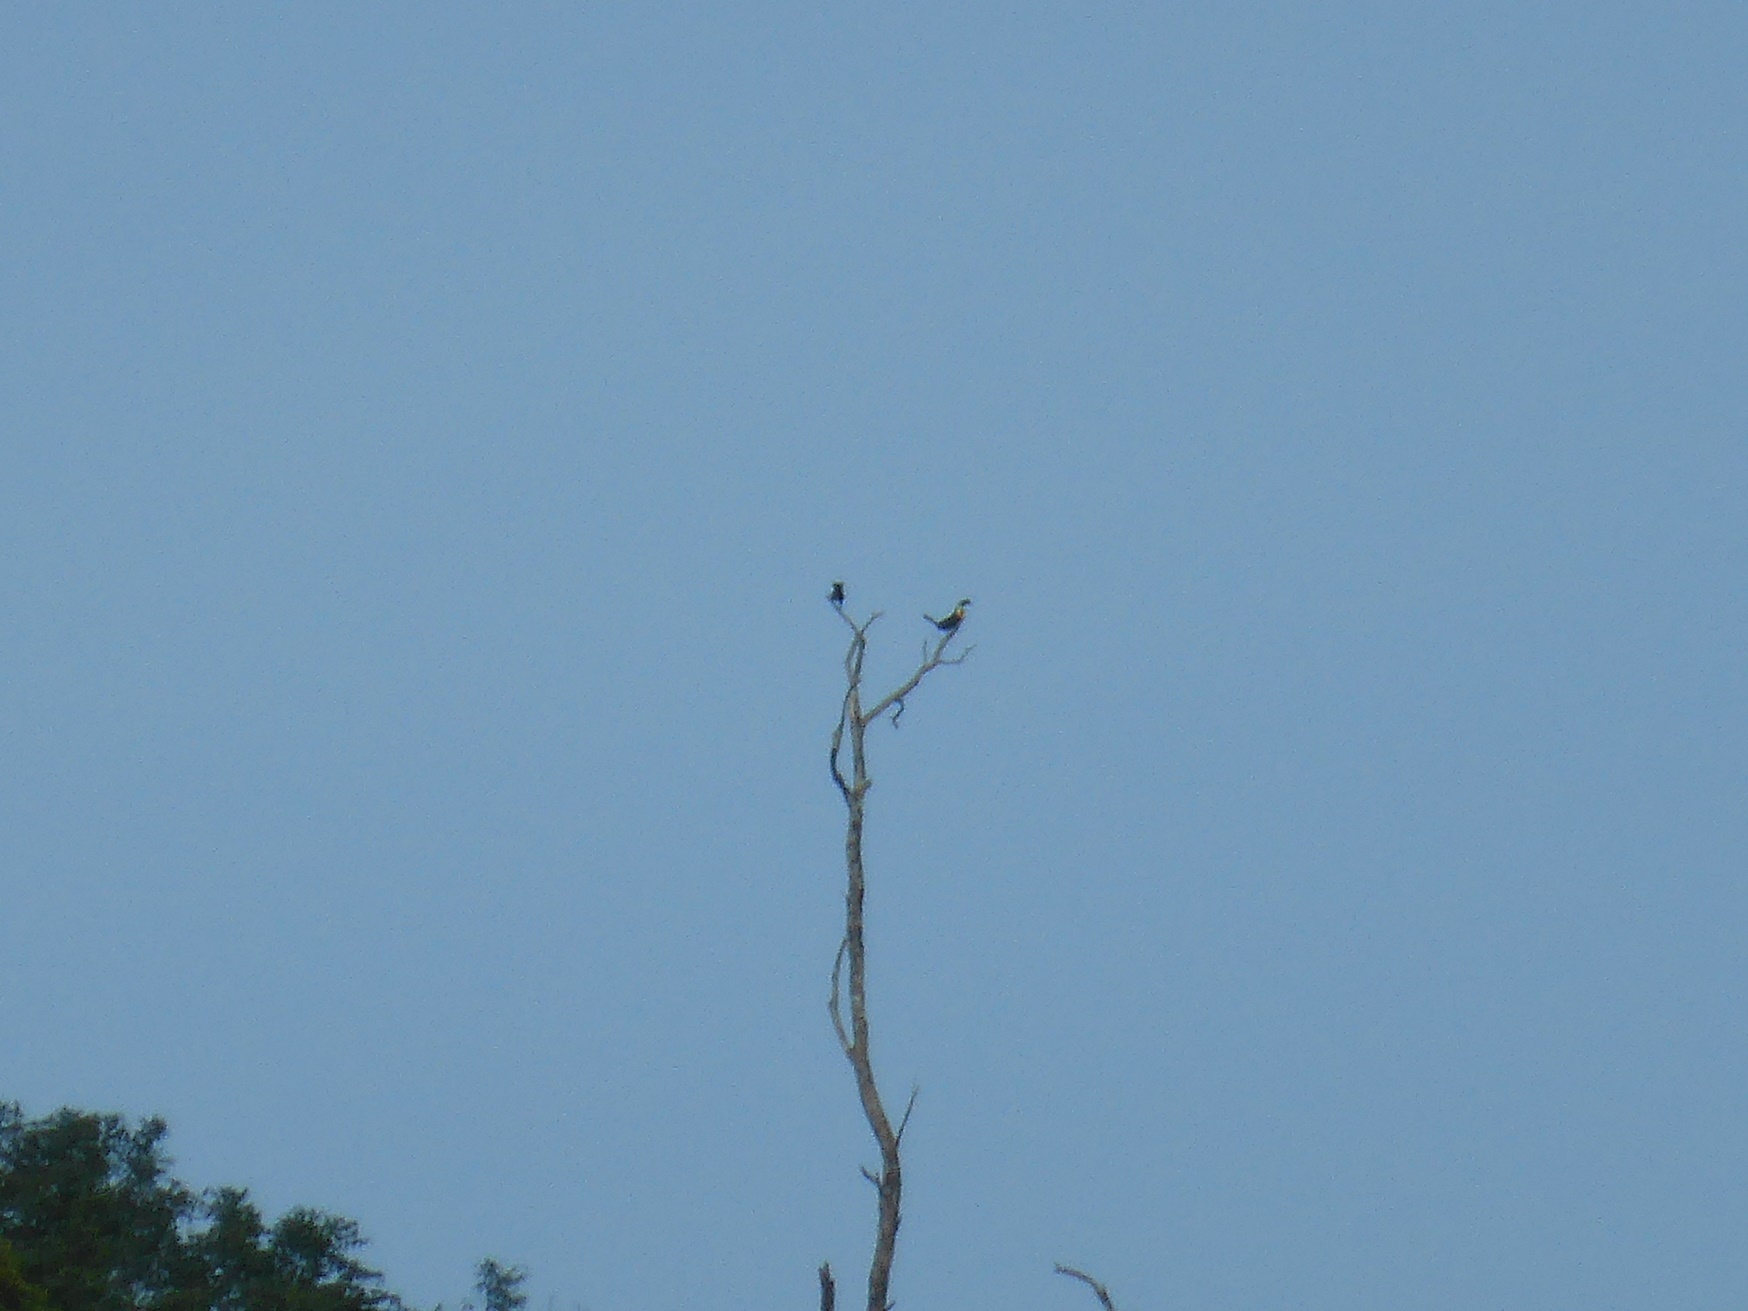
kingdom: Animalia
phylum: Chordata
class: Aves
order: Piciformes
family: Ramphastidae
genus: Ramphastos
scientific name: Ramphastos vitellinus
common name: Channel-billed toucan
